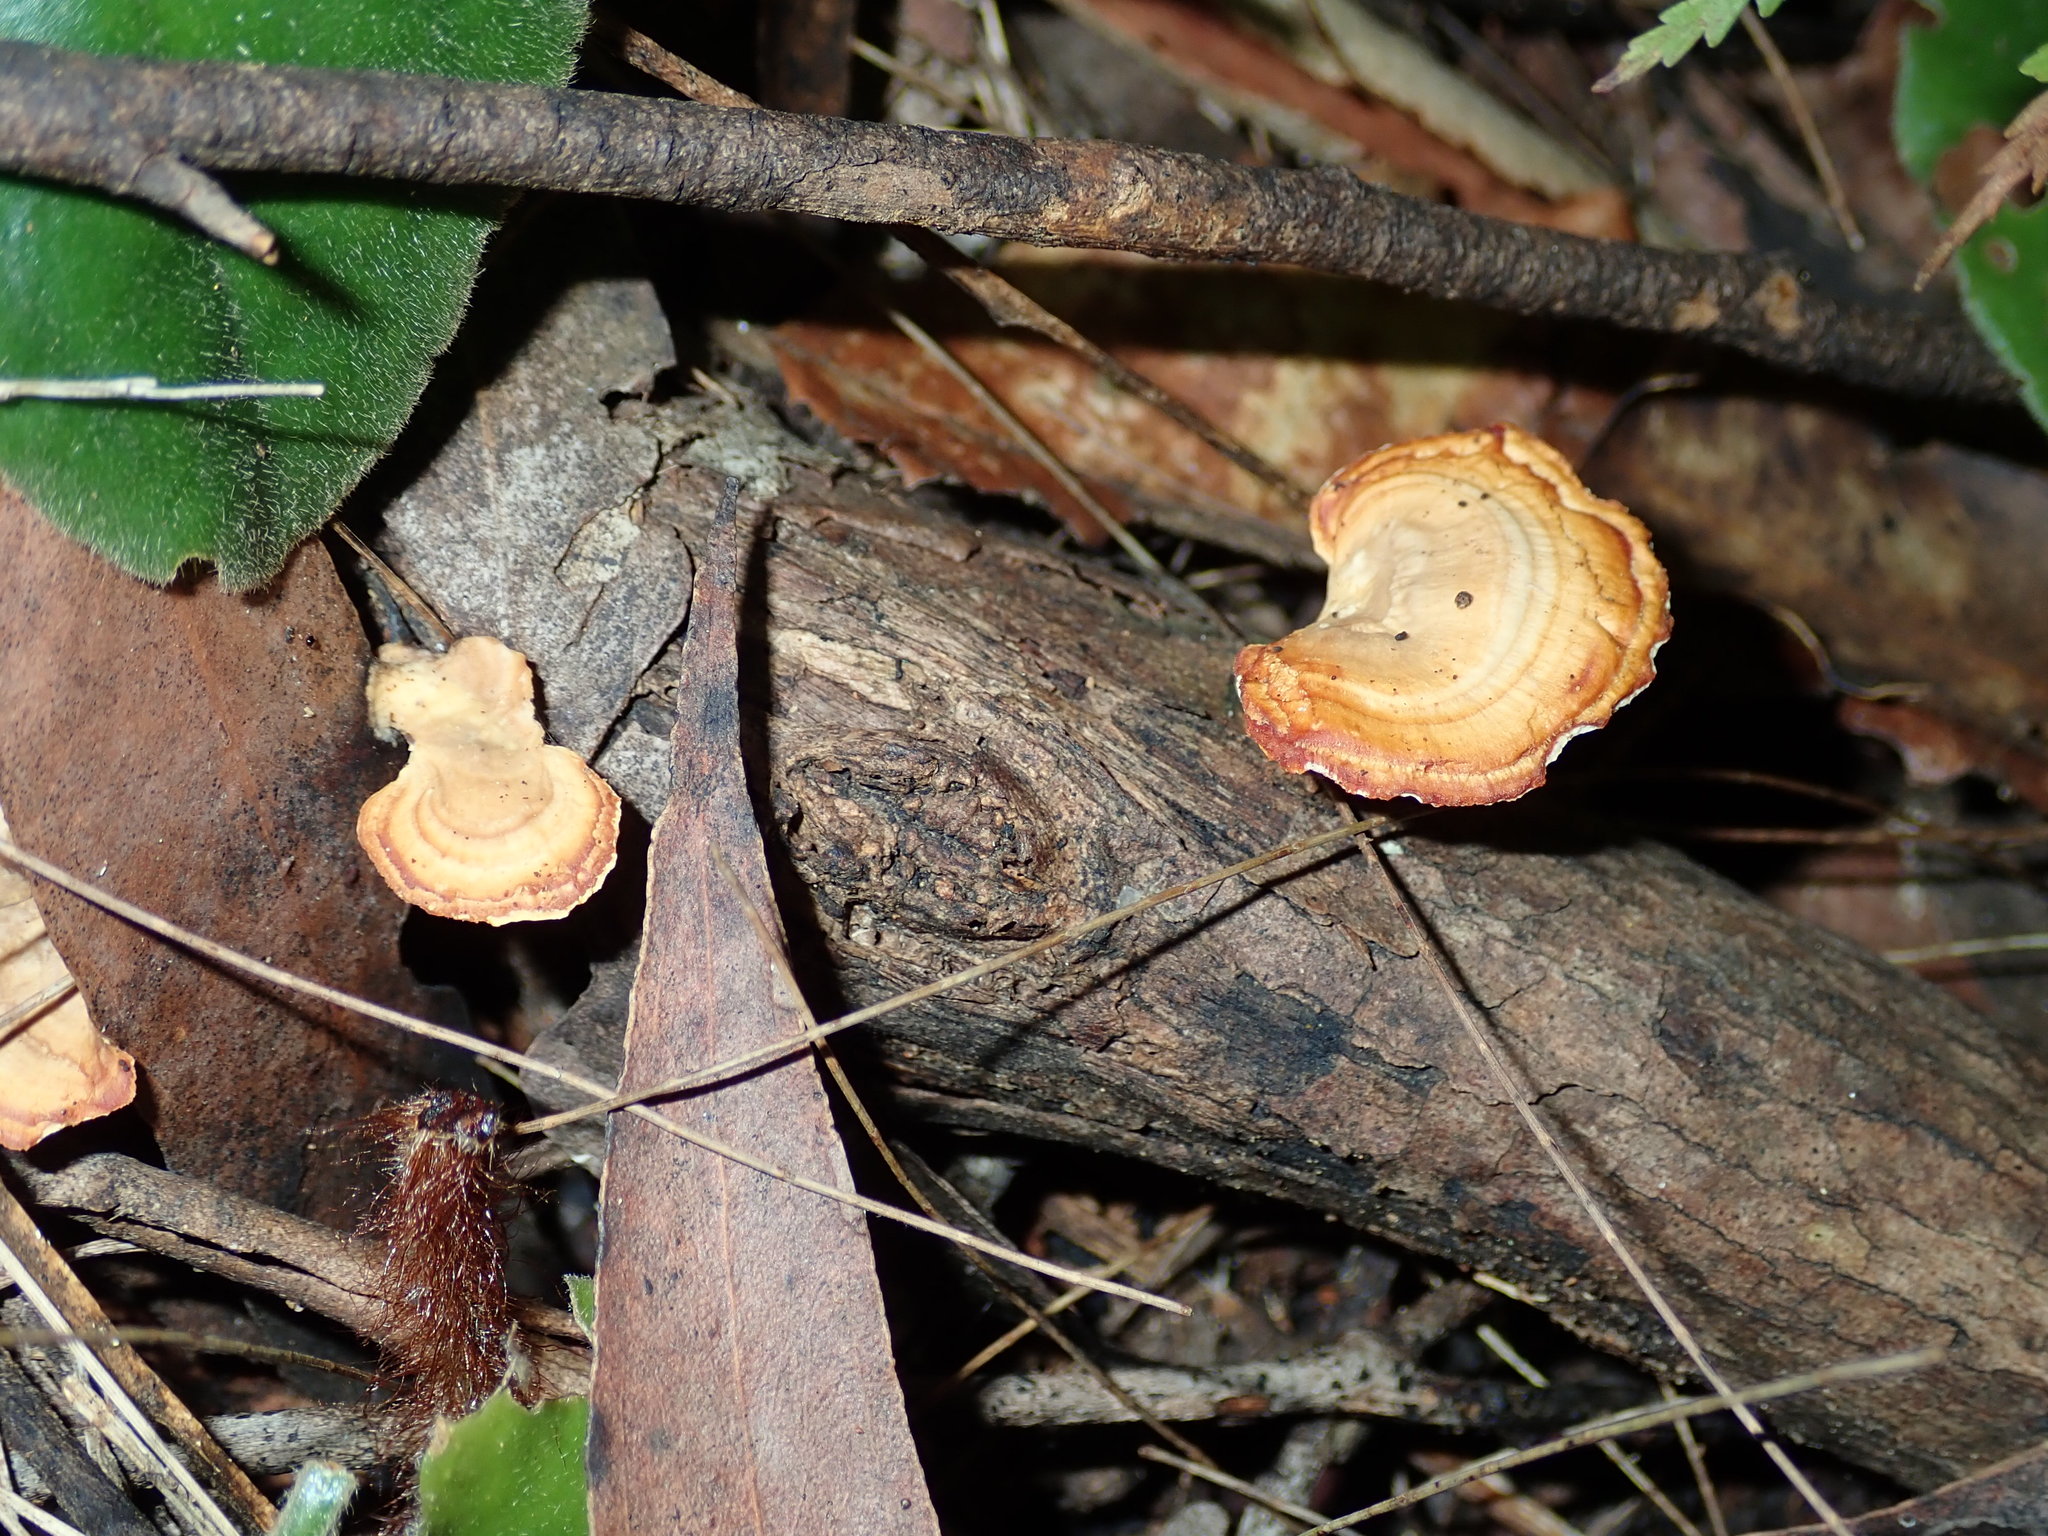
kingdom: Fungi
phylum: Basidiomycota
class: Agaricomycetes
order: Polyporales
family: Polyporaceae
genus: Microporus
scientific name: Microporus affinis
